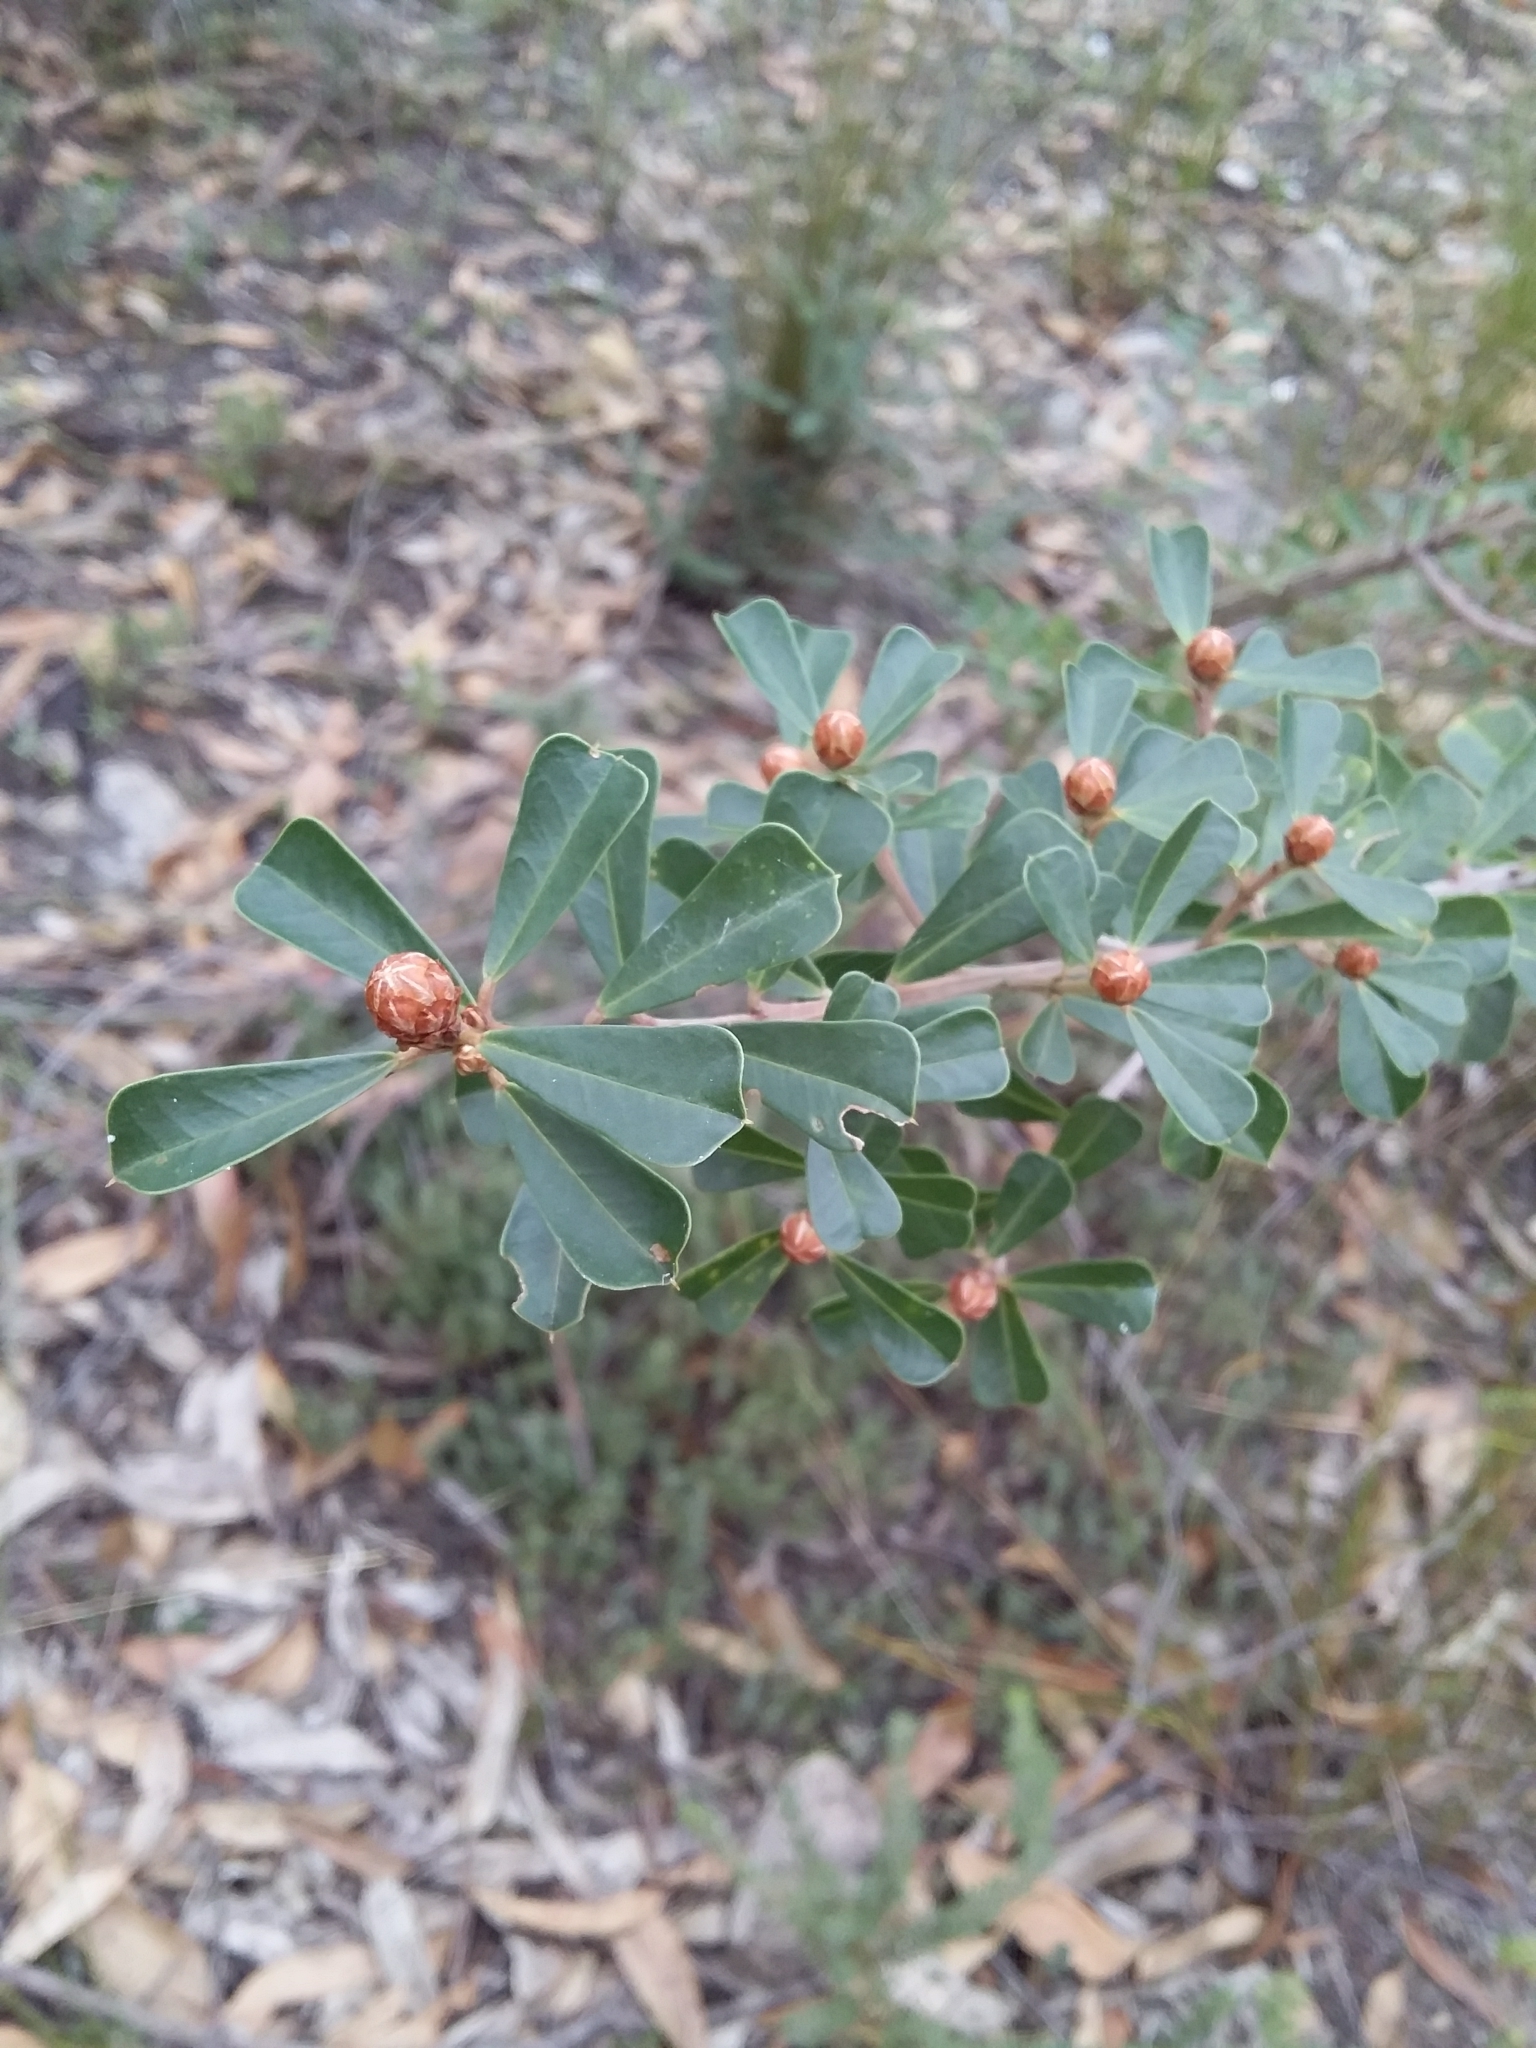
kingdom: Plantae
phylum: Tracheophyta
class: Magnoliopsida
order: Fabales
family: Fabaceae
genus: Pultenaea
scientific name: Pultenaea daphnoides
